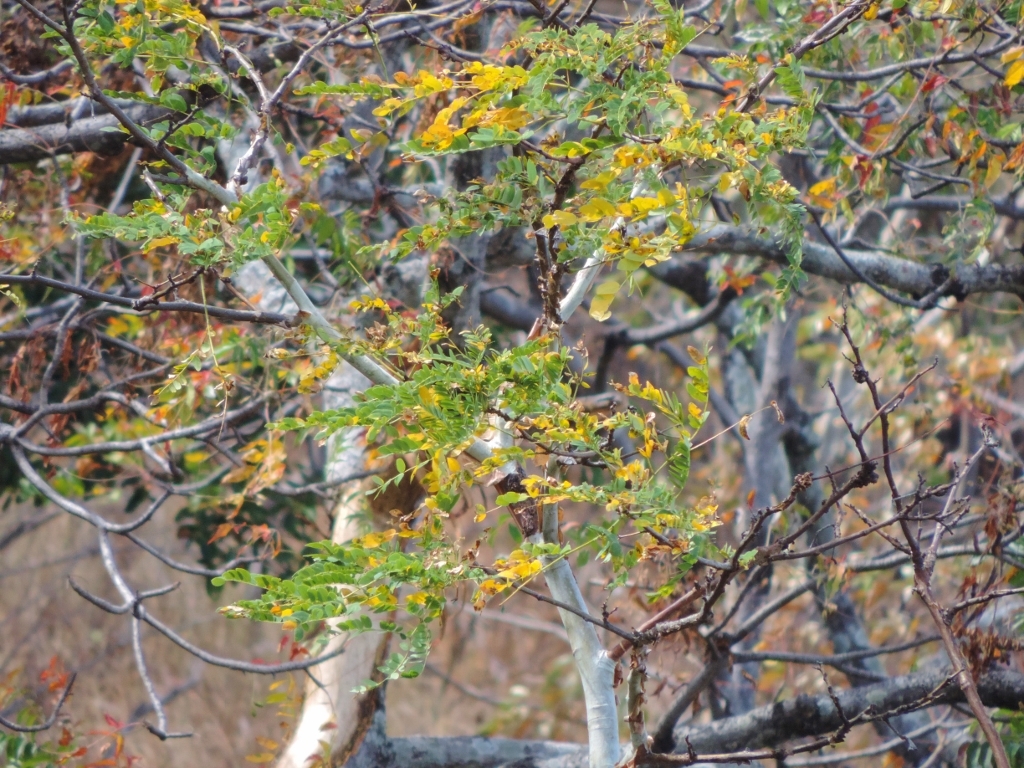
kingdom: Plantae
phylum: Tracheophyta
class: Magnoliopsida
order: Fabales
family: Fabaceae
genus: Albizia
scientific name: Albizia tanganyicensis
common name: Paperbark false thorn
